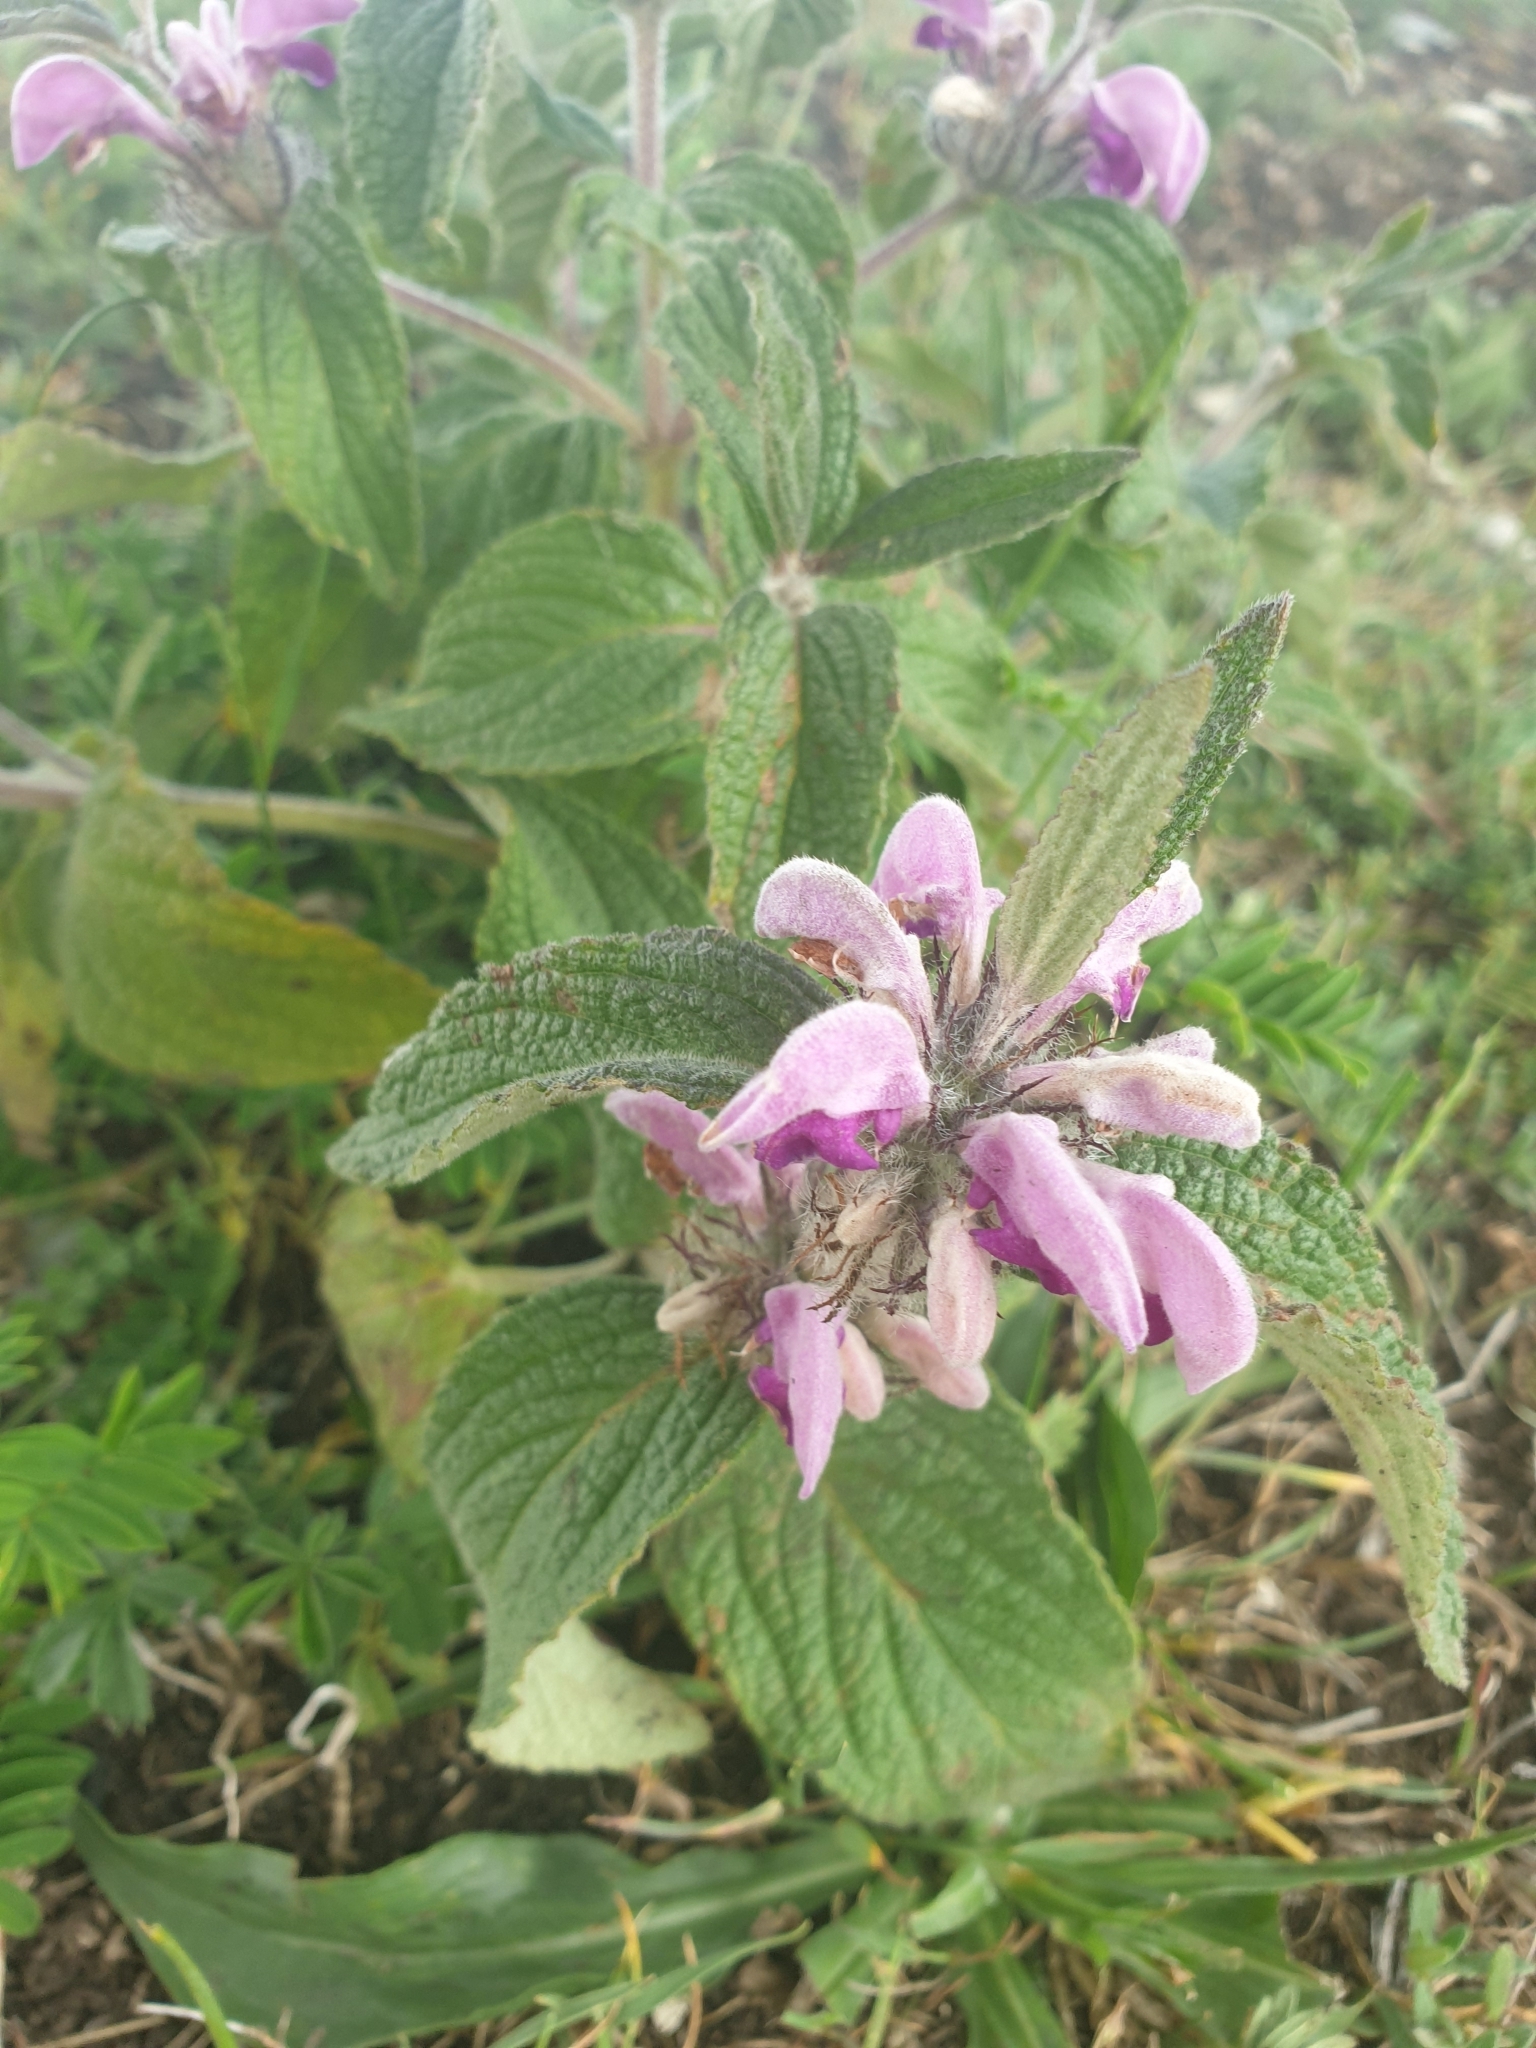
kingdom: Plantae
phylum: Tracheophyta
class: Magnoliopsida
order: Lamiales
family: Lamiaceae
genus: Phlomis
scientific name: Phlomis herba-venti
